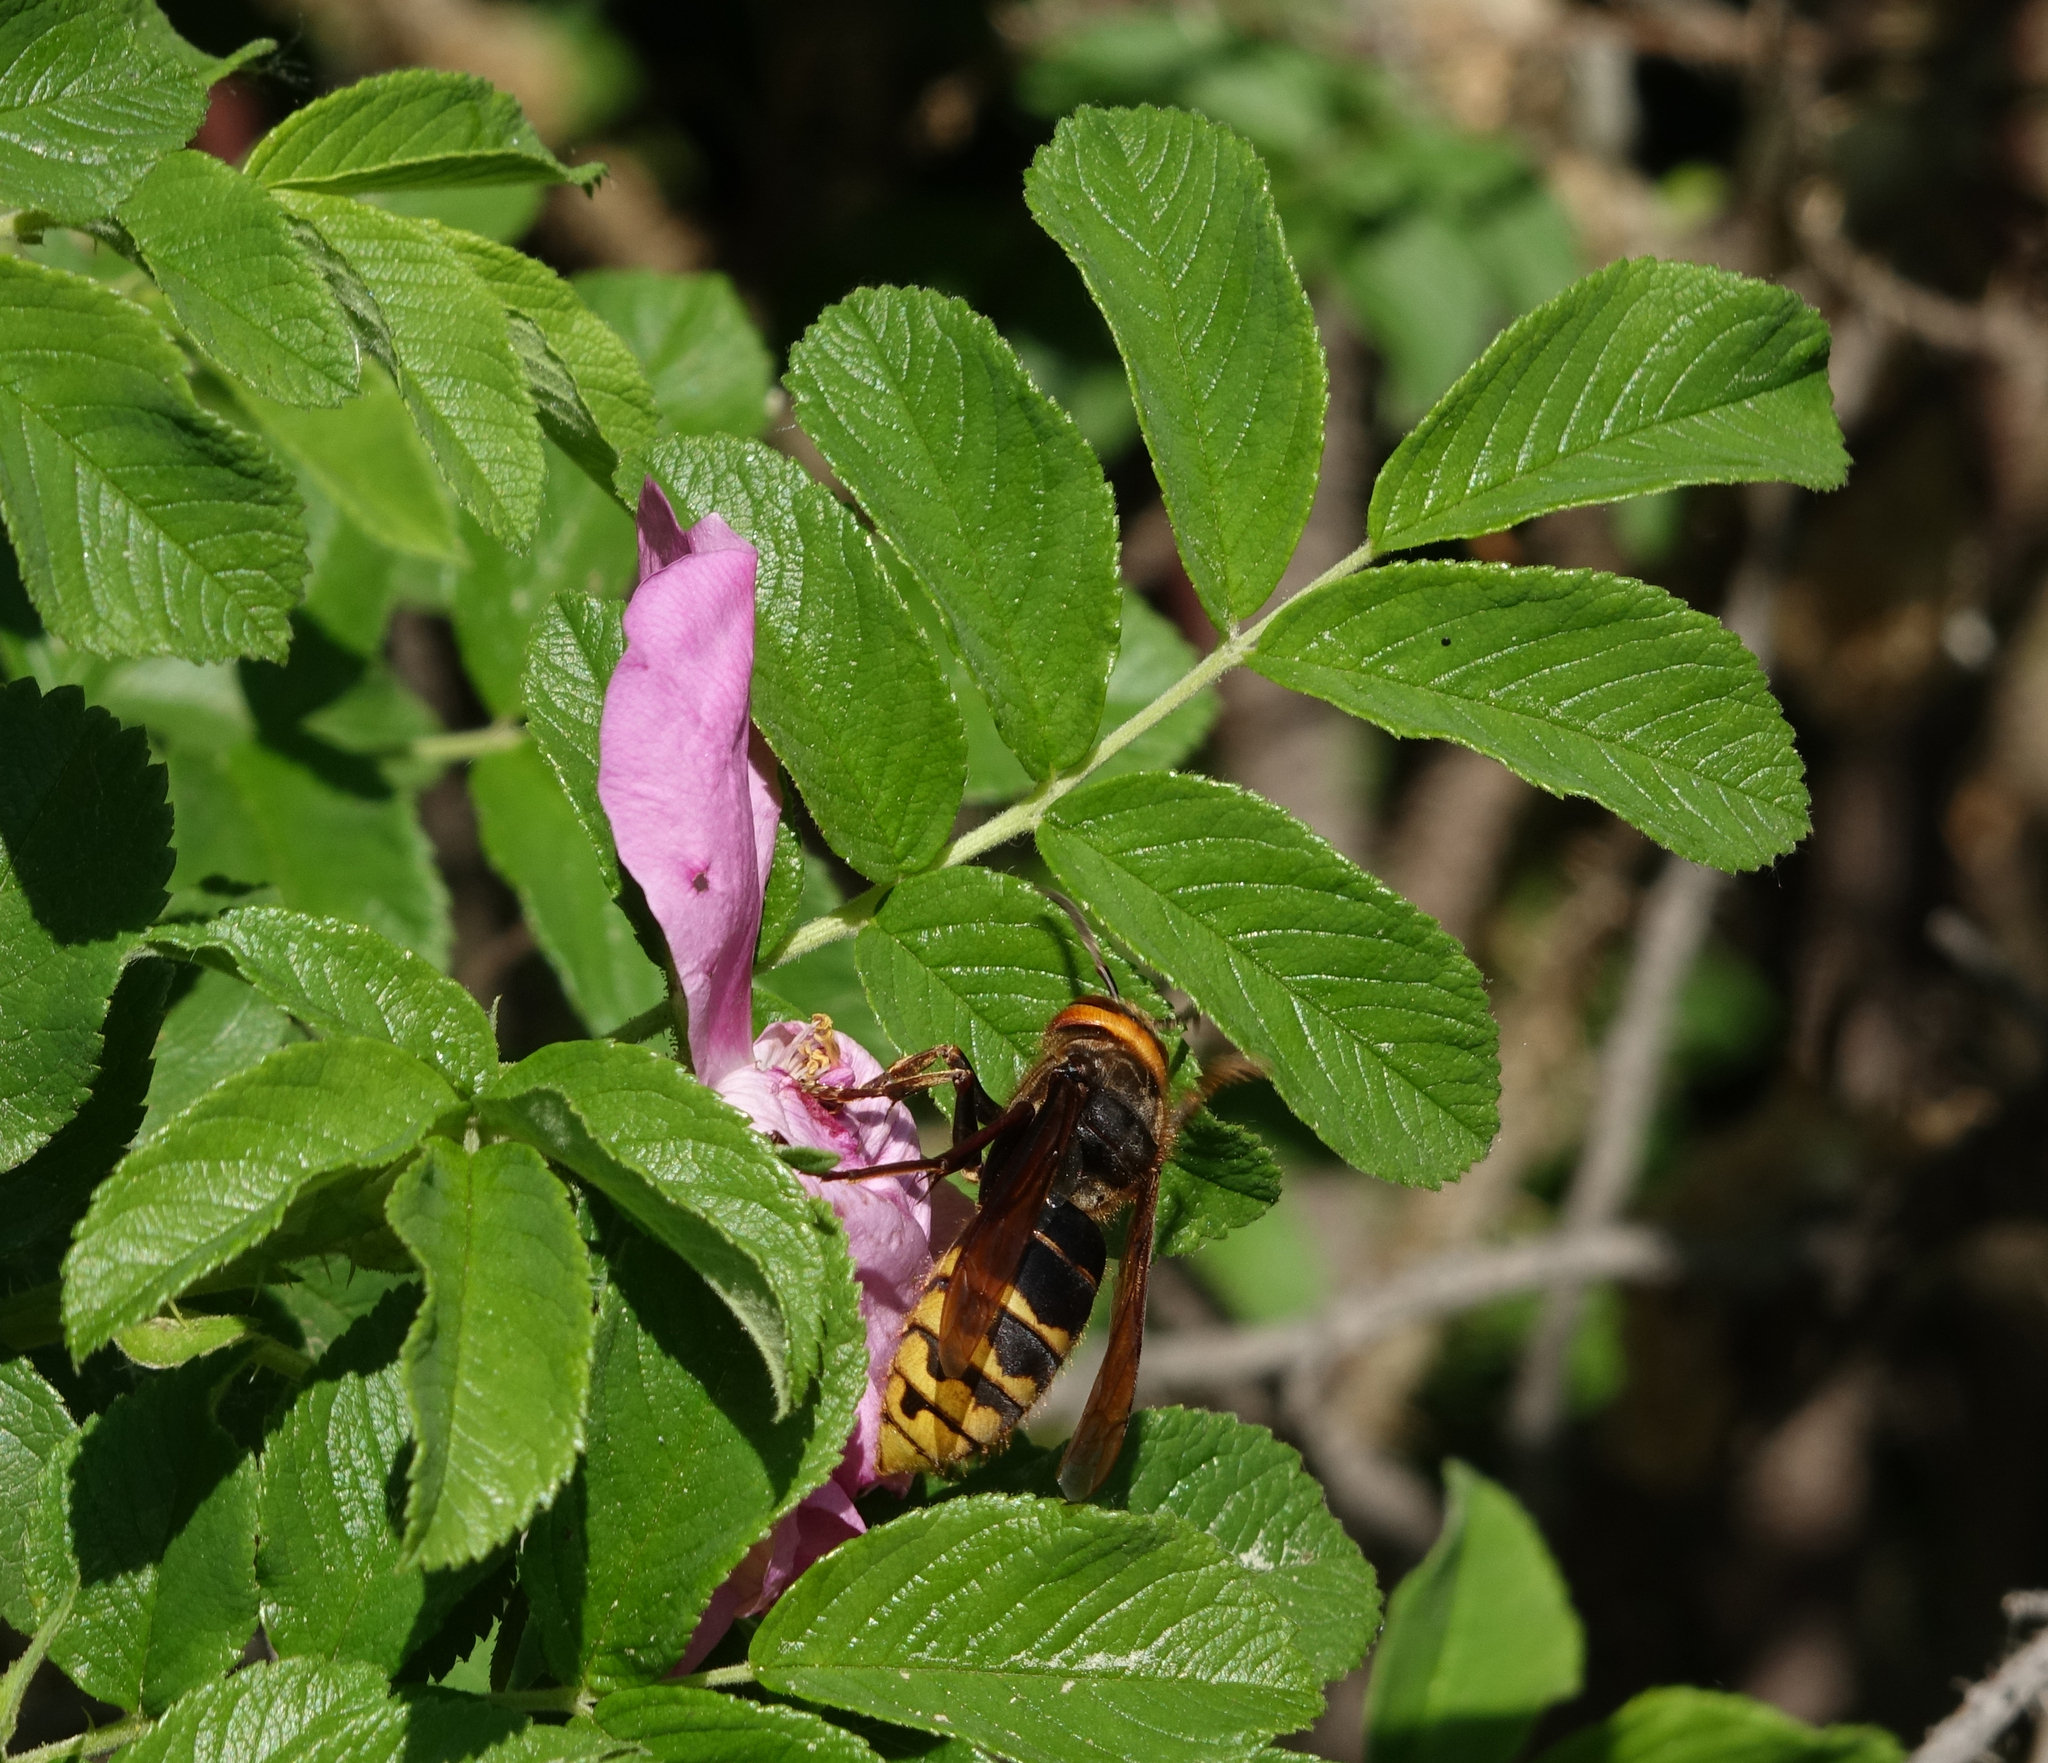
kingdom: Animalia
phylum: Arthropoda
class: Insecta
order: Hymenoptera
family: Vespidae
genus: Vespa
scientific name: Vespa crabro
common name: Hornet
